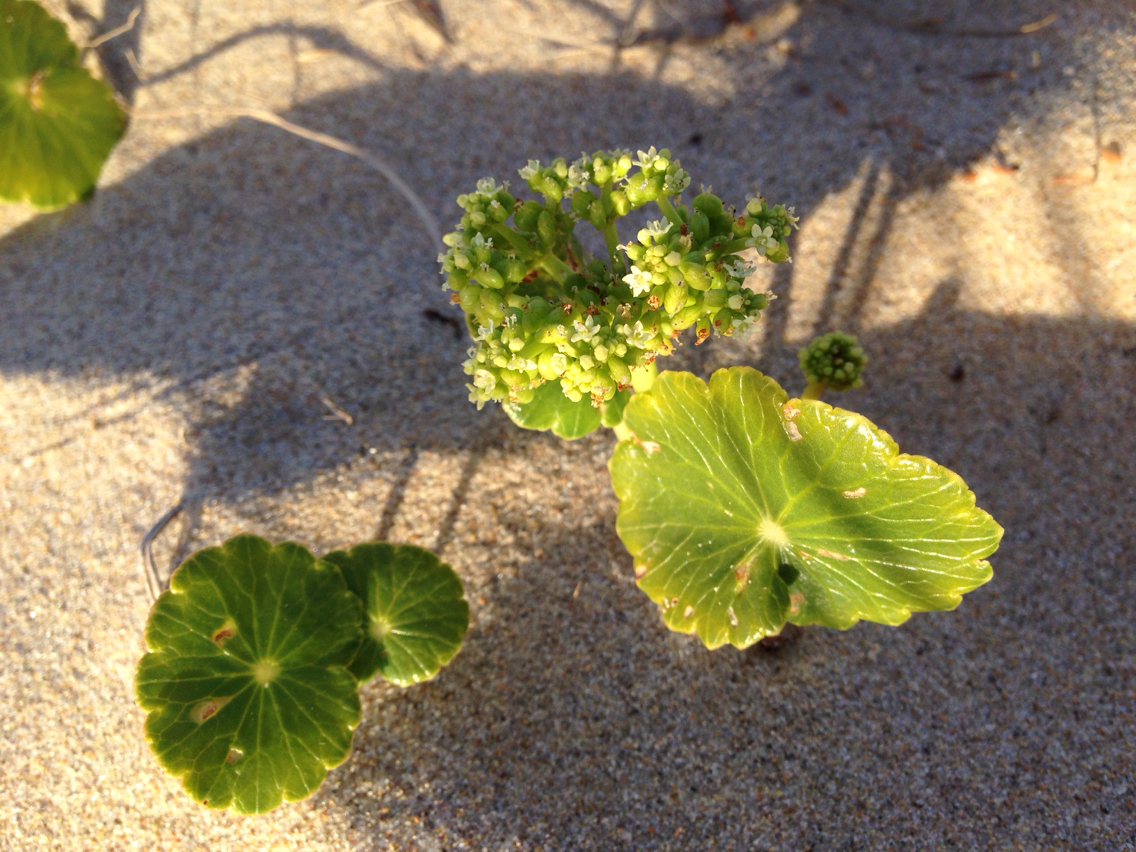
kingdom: Plantae
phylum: Tracheophyta
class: Magnoliopsida
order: Apiales
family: Araliaceae
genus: Hydrocotyle
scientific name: Hydrocotyle bonariensis
